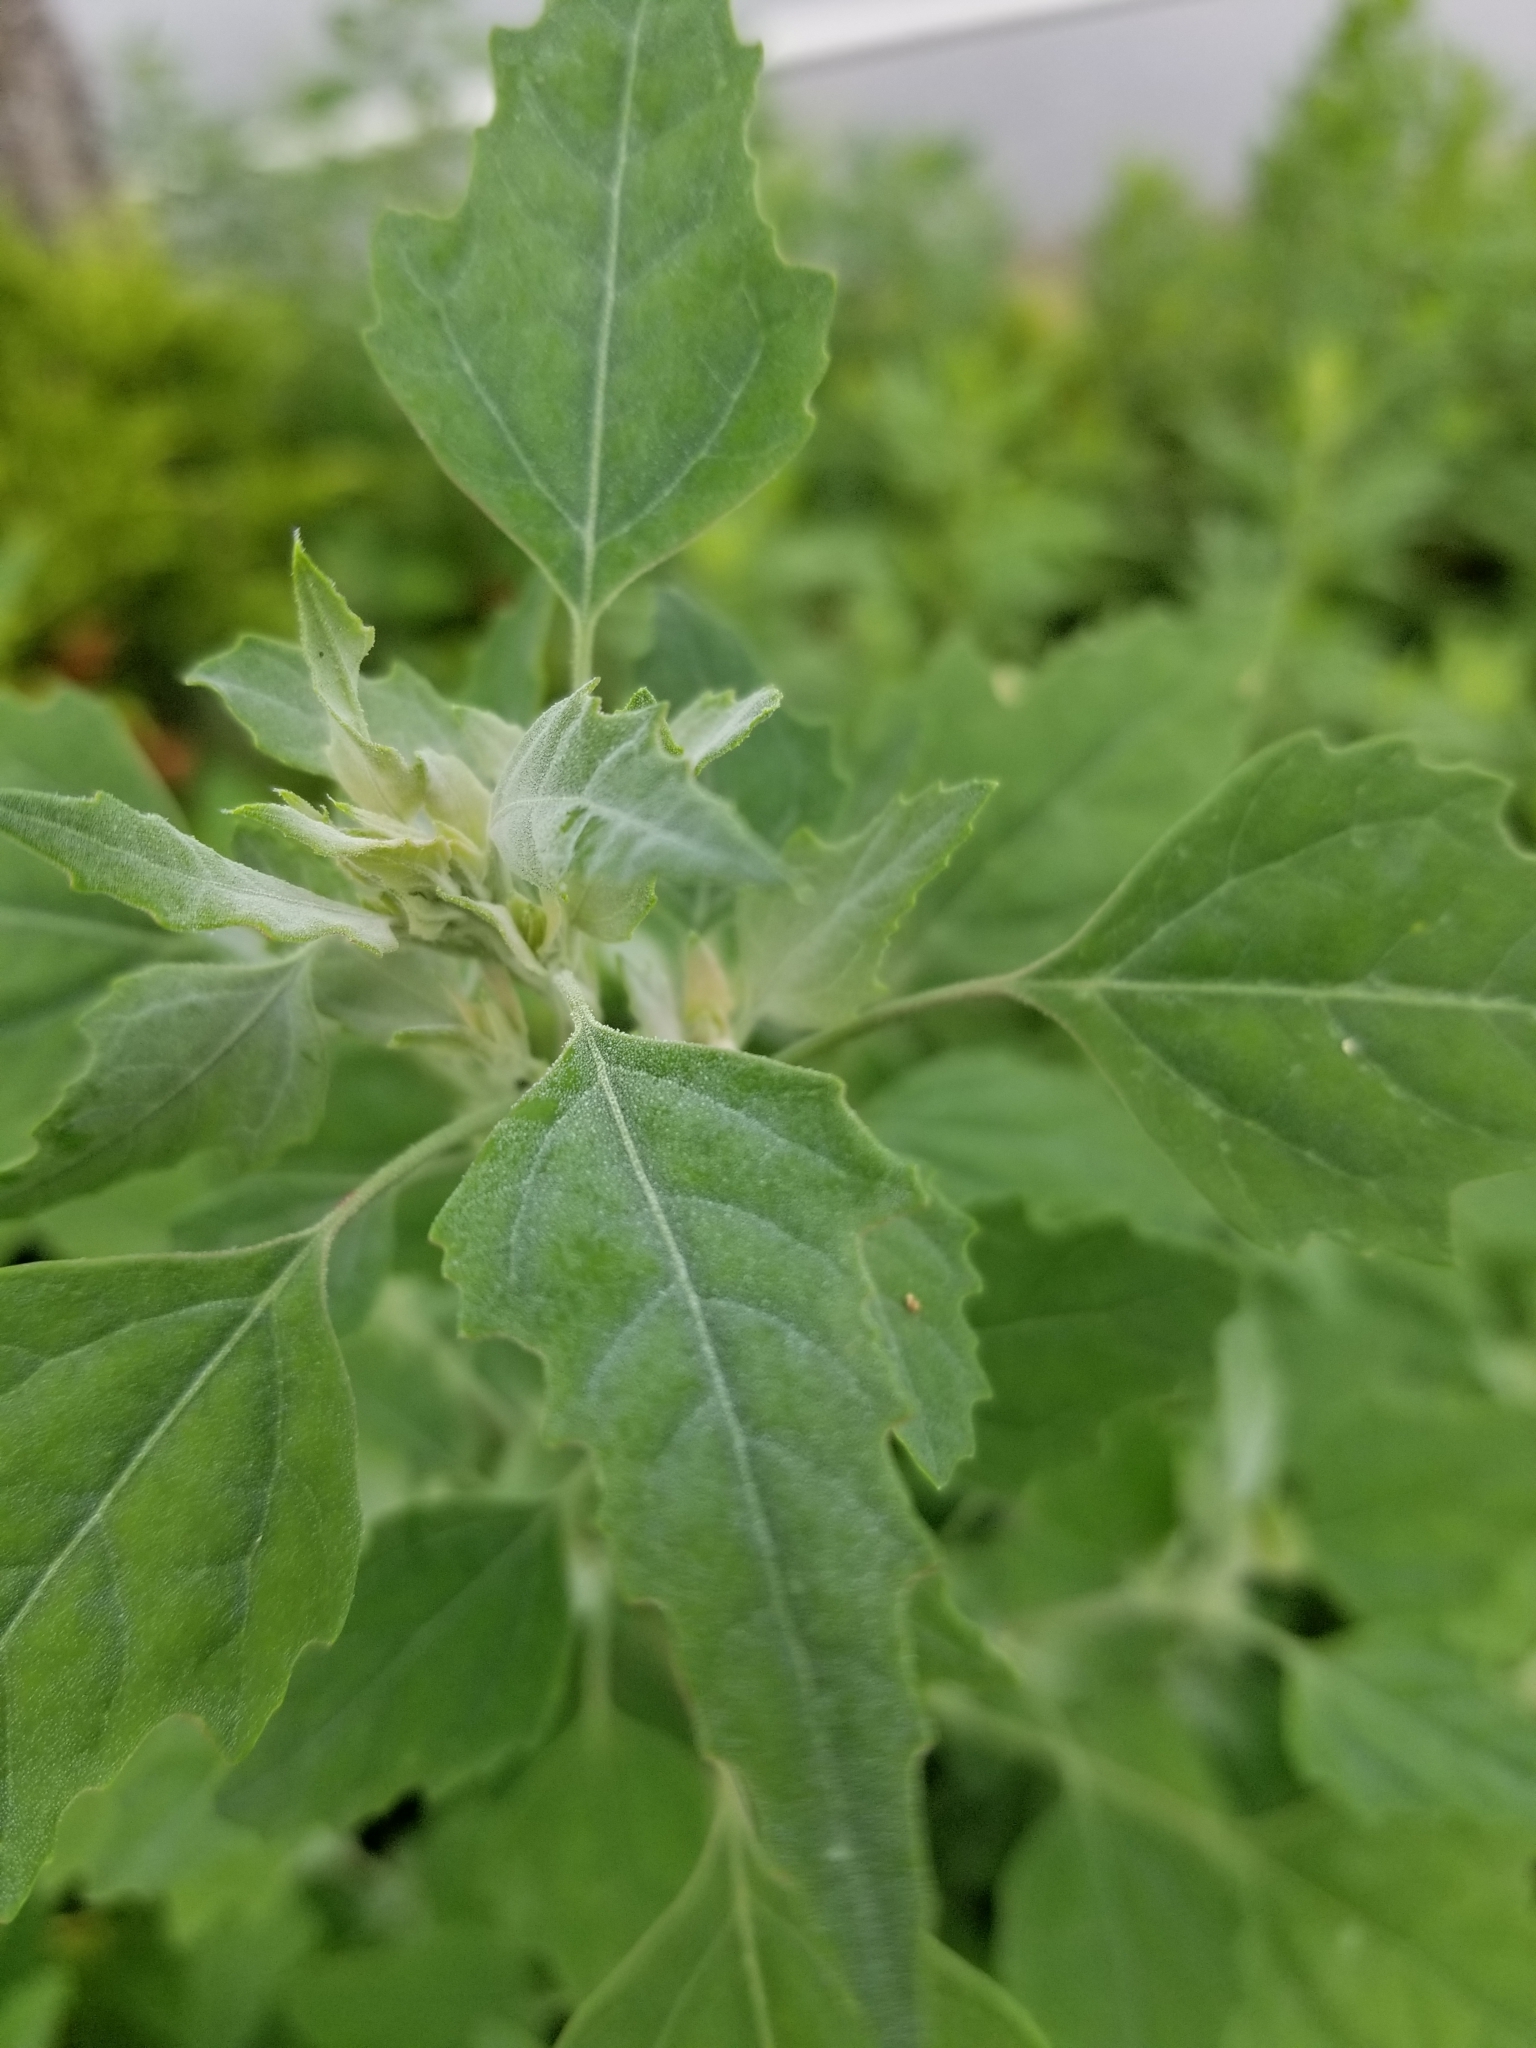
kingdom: Plantae
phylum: Tracheophyta
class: Magnoliopsida
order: Caryophyllales
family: Amaranthaceae
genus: Chenopodium
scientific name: Chenopodium album
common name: Fat-hen
